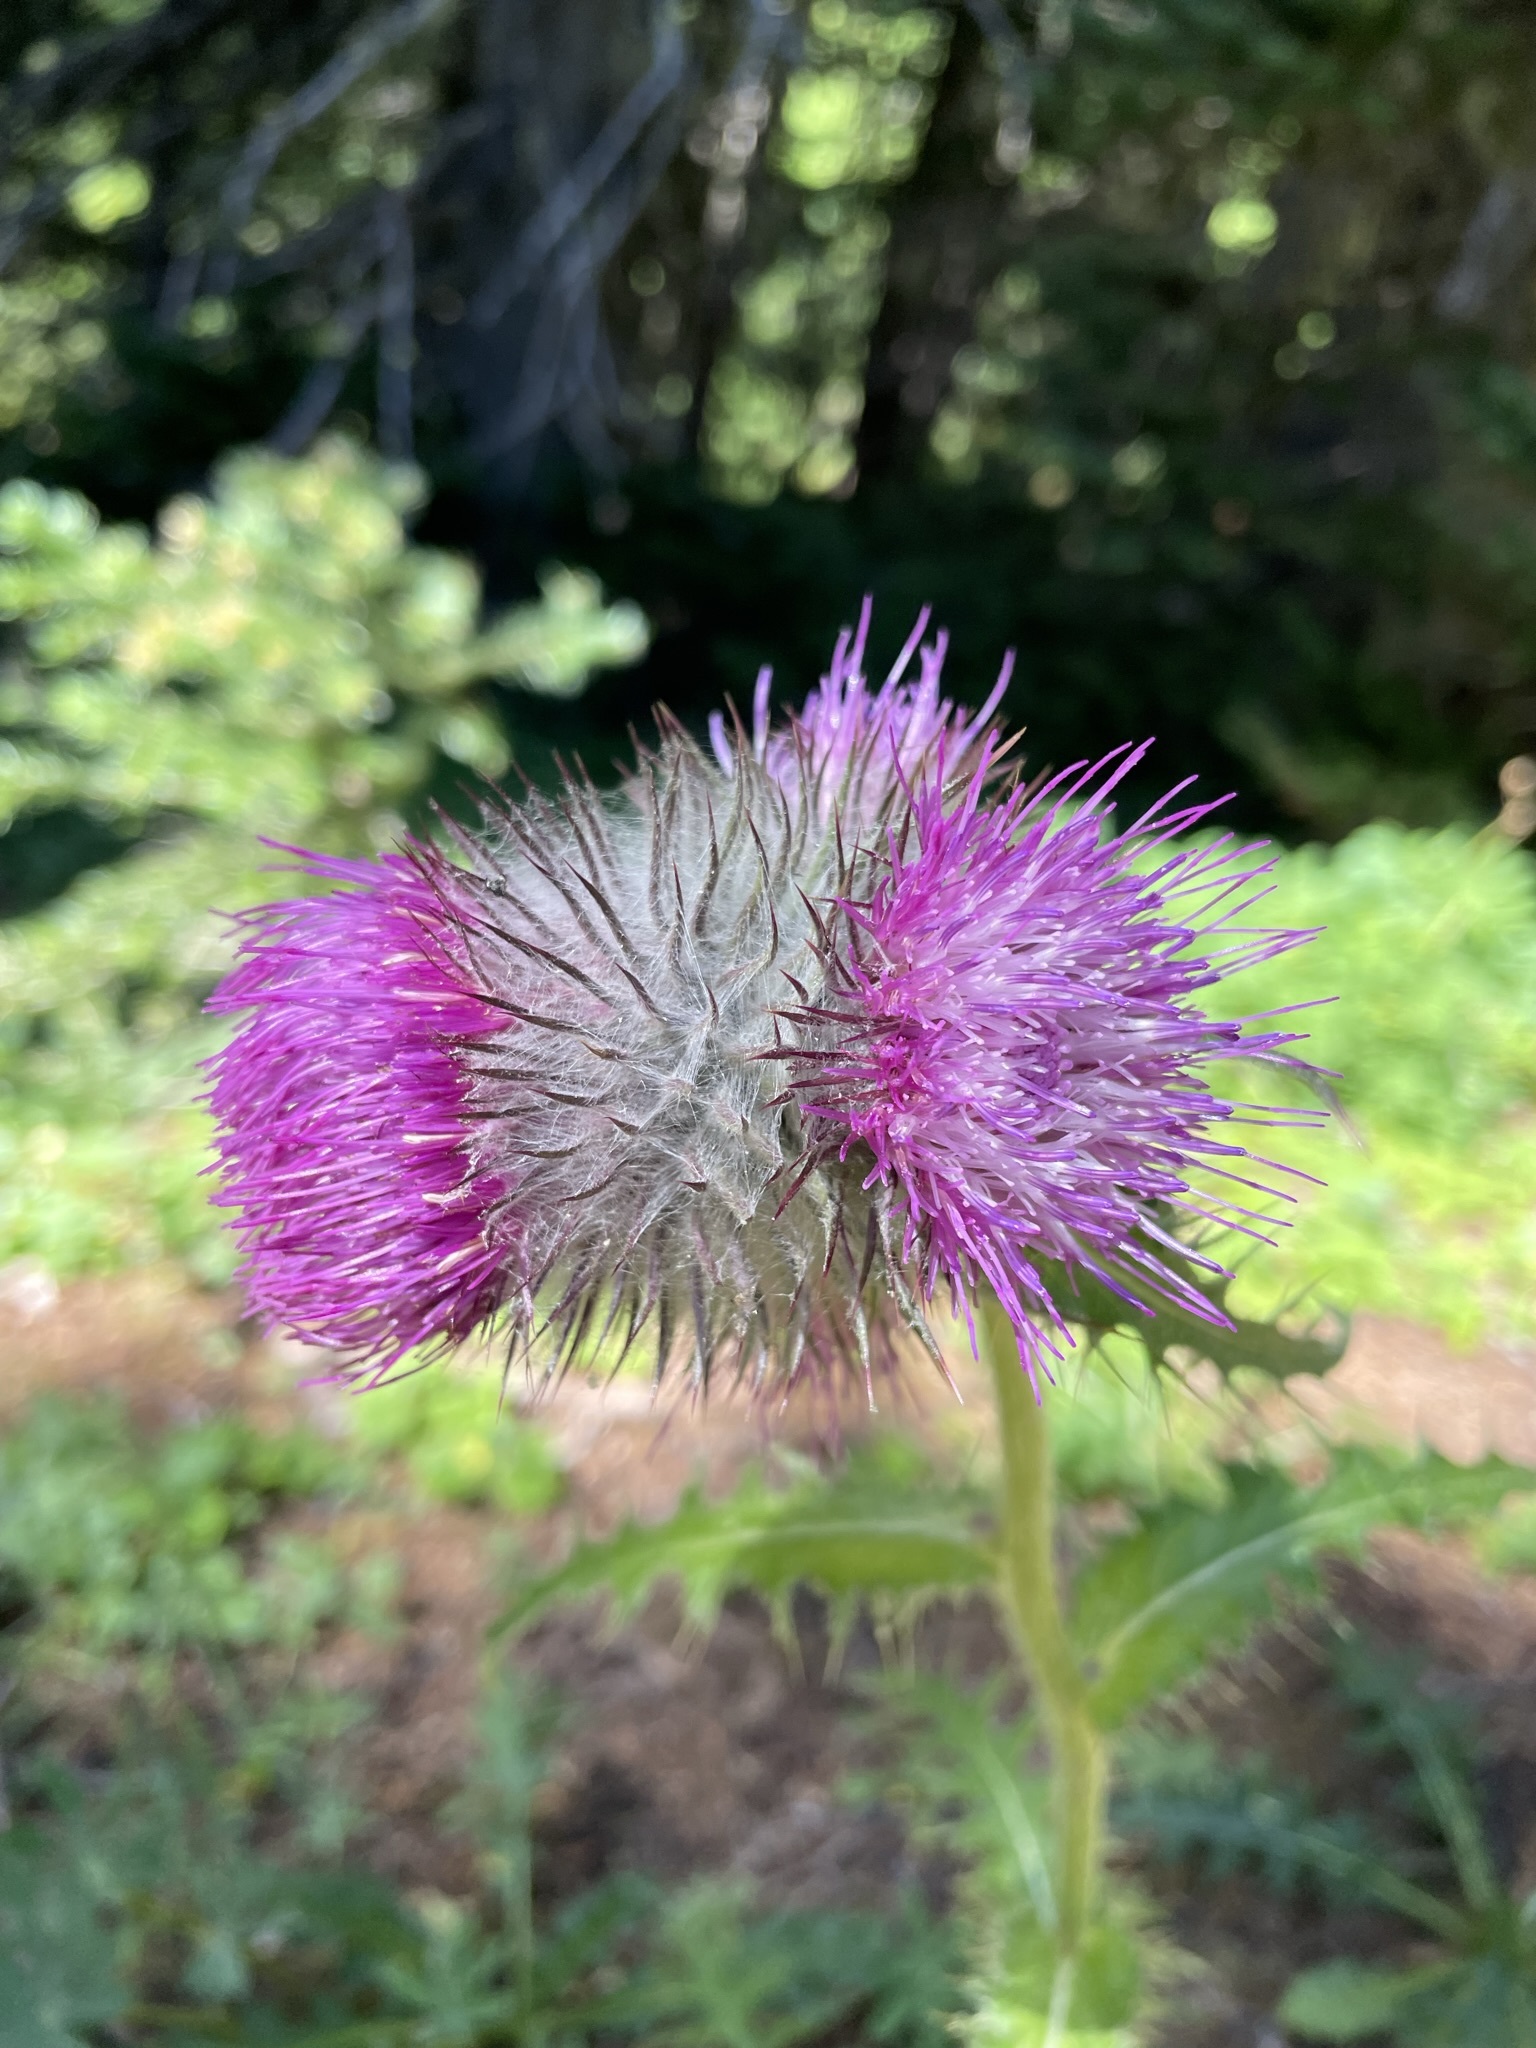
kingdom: Plantae
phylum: Tracheophyta
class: Magnoliopsida
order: Asterales
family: Asteraceae
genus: Cirsium
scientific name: Cirsium edule
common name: Indian thistle
